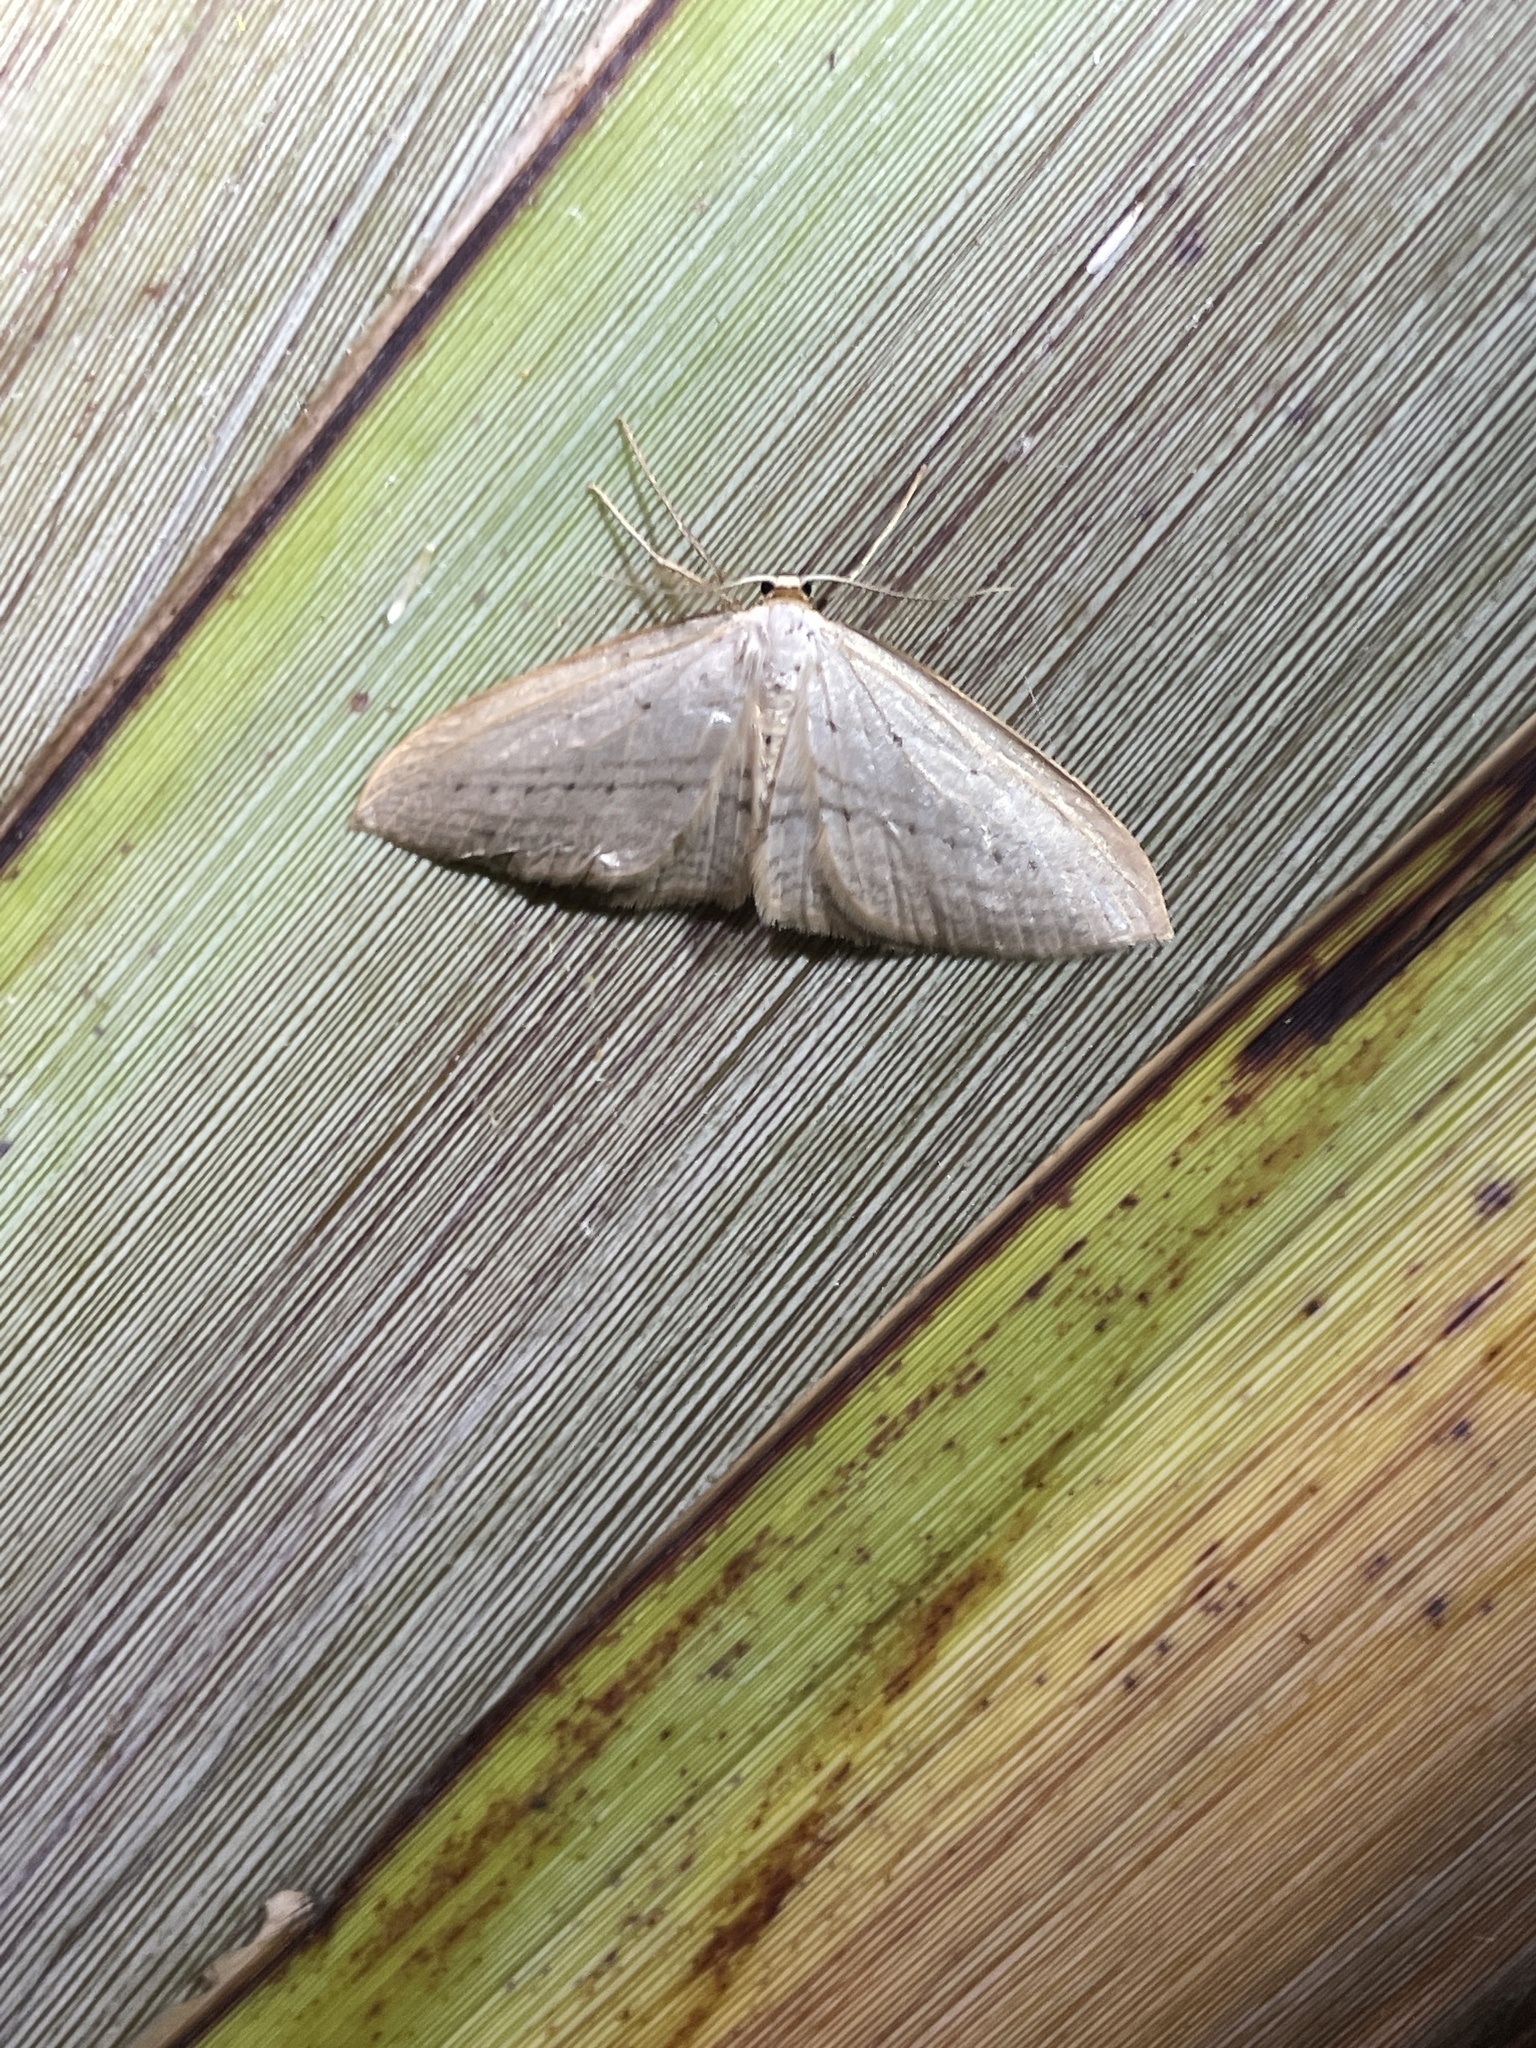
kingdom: Animalia
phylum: Arthropoda
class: Insecta
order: Lepidoptera
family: Geometridae
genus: Orthoclydon
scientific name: Orthoclydon praefectata
